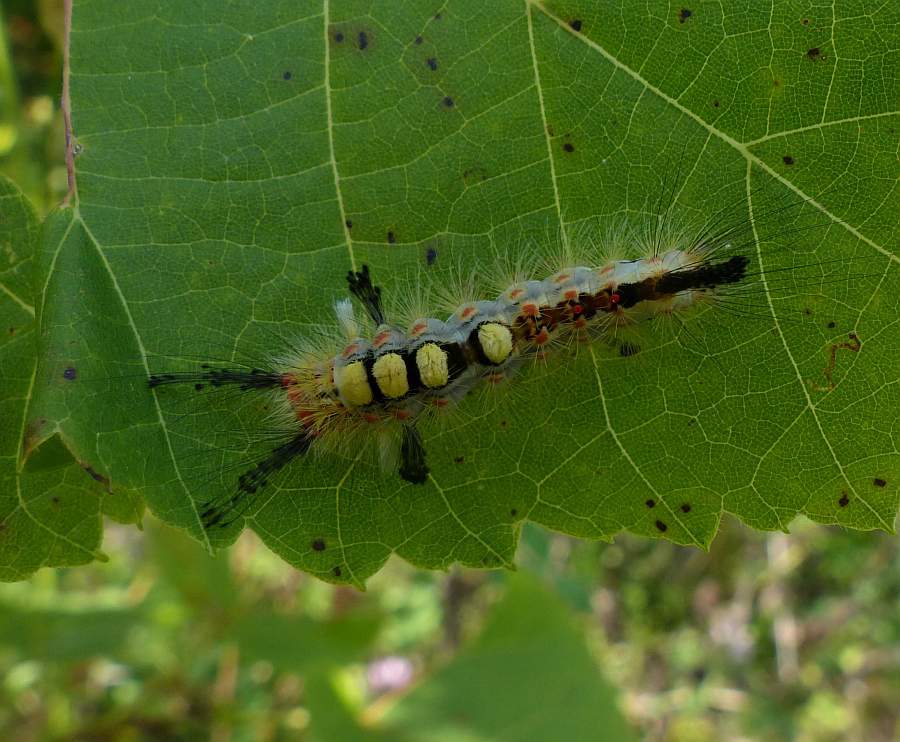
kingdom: Animalia
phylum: Arthropoda
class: Insecta
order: Lepidoptera
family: Erebidae
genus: Orgyia
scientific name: Orgyia antiqua
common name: Vapourer
